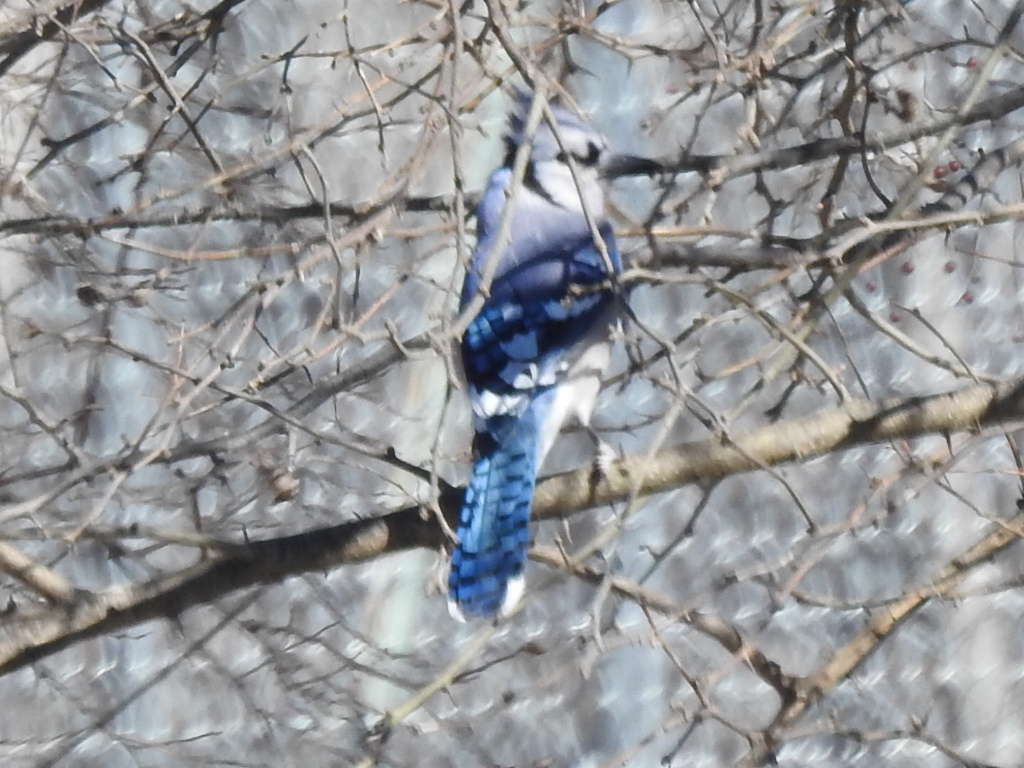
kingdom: Animalia
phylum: Chordata
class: Aves
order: Passeriformes
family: Corvidae
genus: Cyanocitta
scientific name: Cyanocitta cristata
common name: Blue jay
